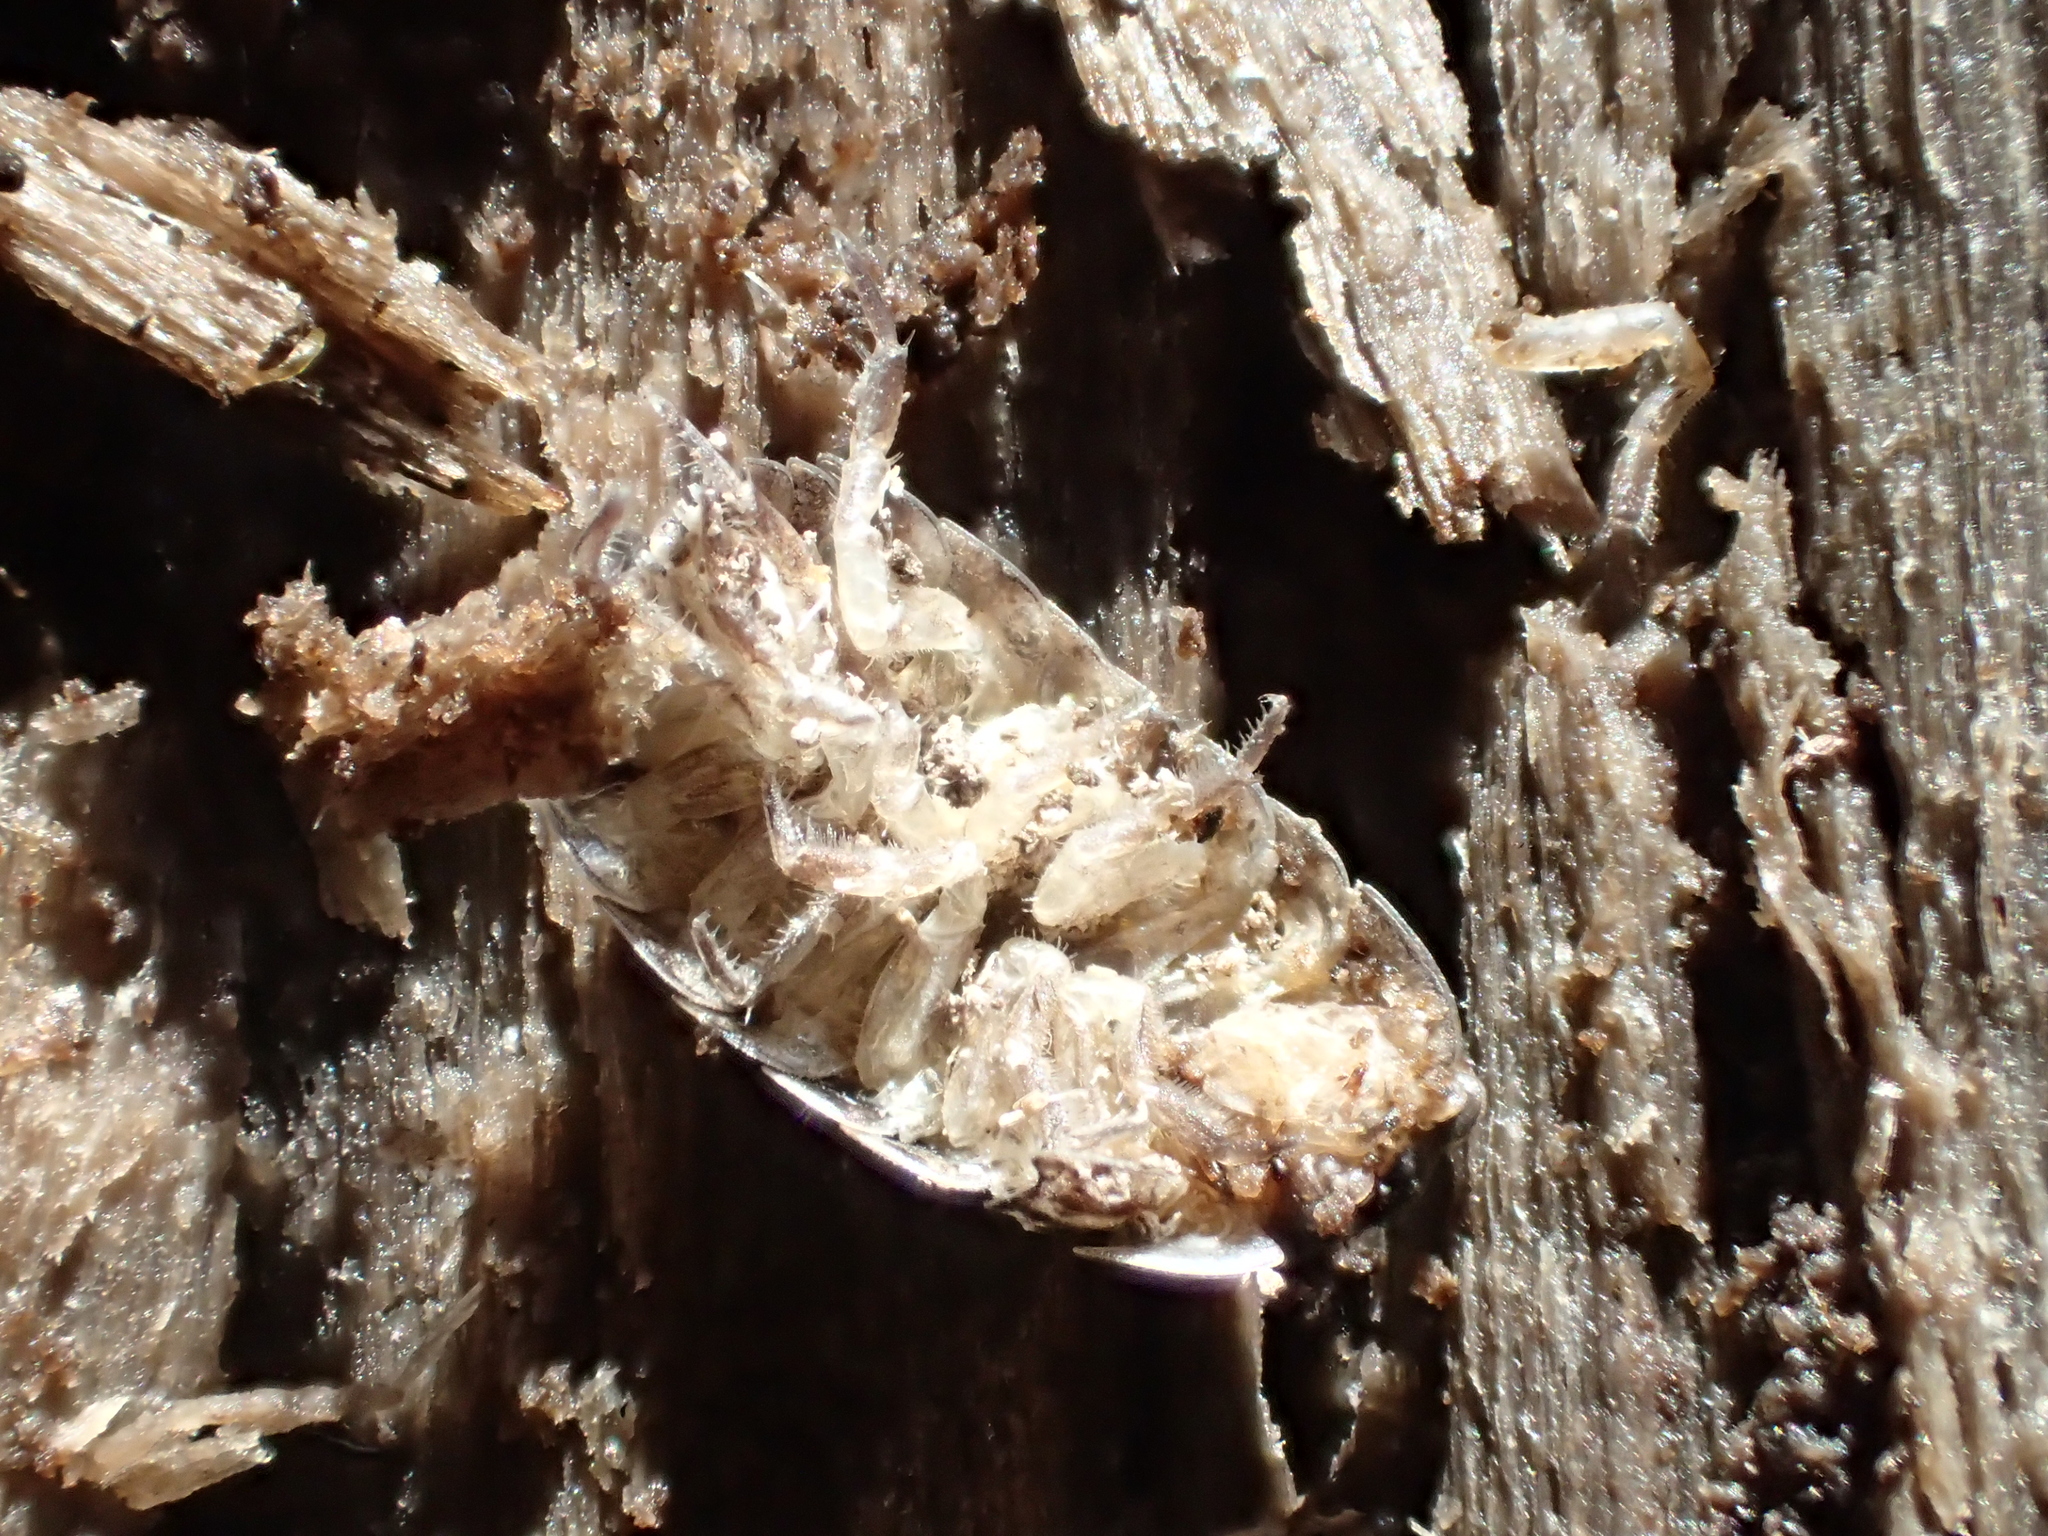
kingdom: Animalia
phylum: Arthropoda
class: Malacostraca
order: Isopoda
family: Trachelipodidae
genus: Trachelipus
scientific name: Trachelipus rathkii
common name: Isopod
